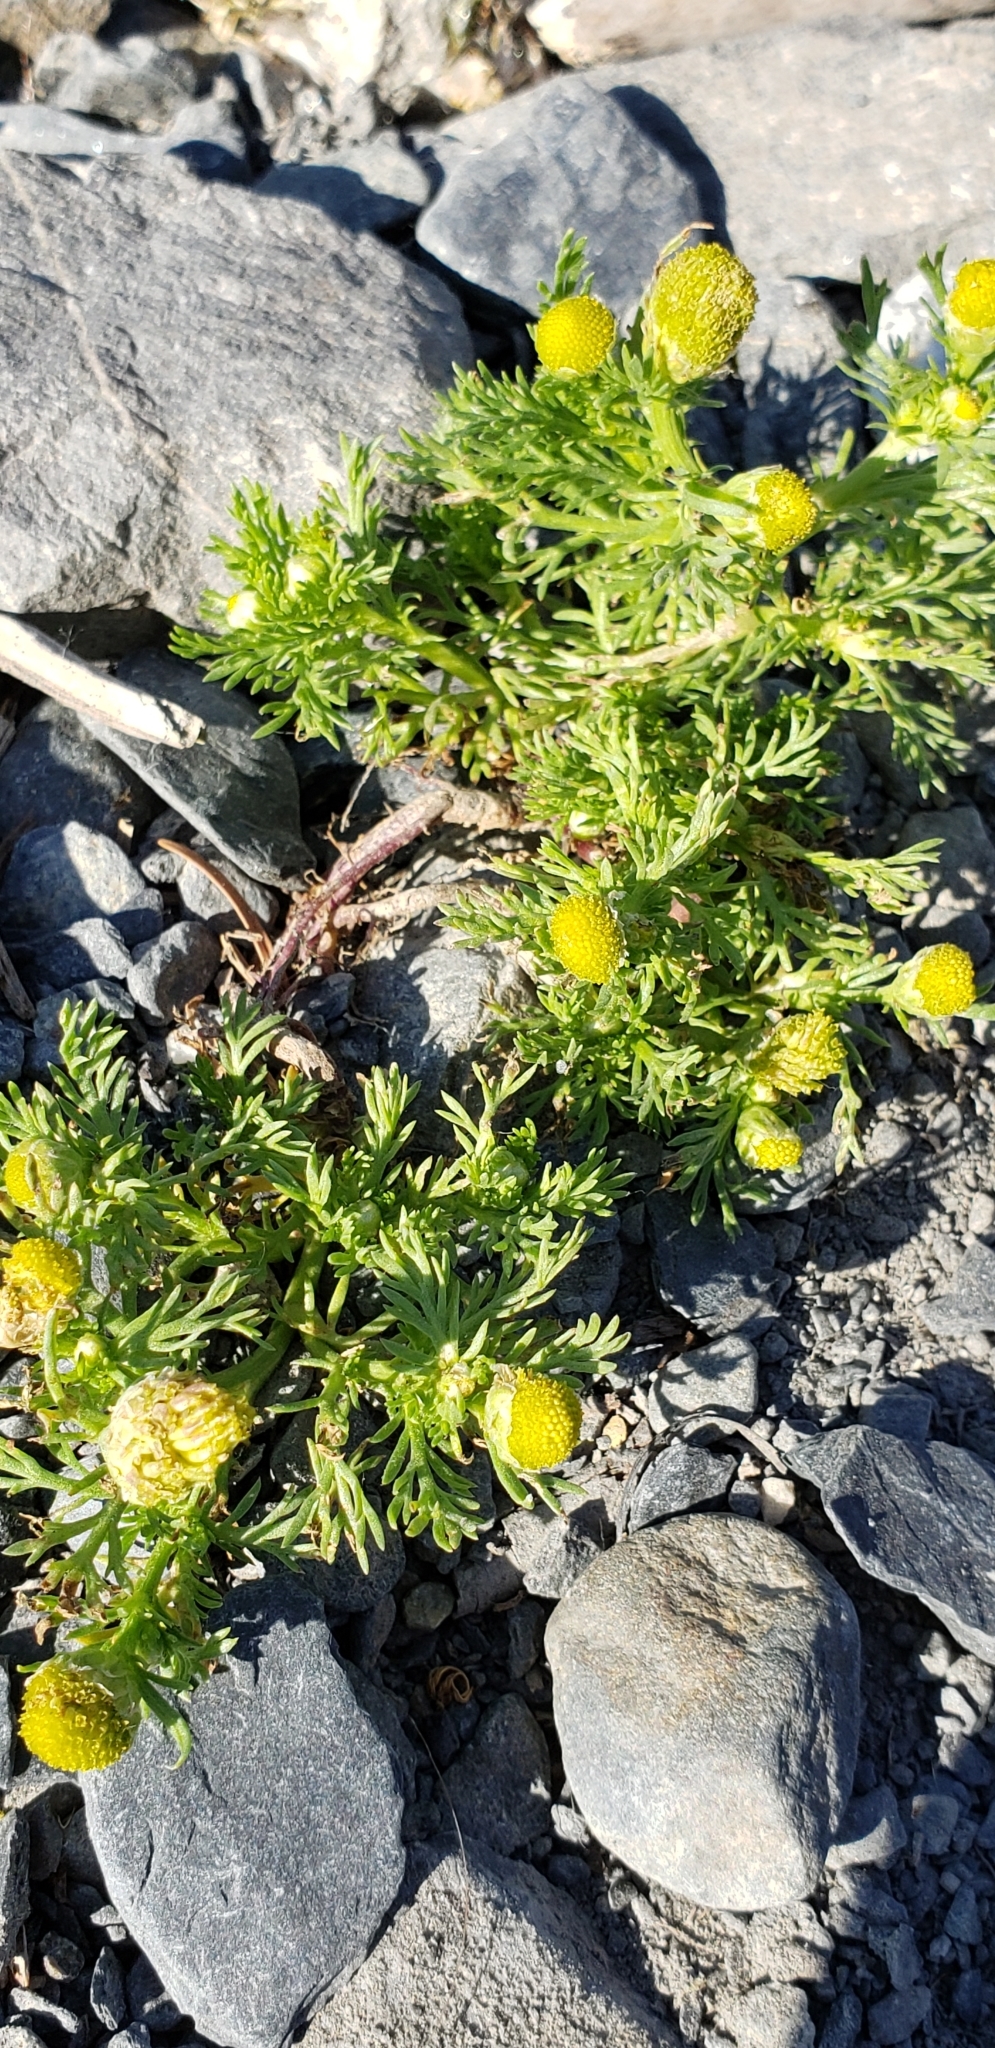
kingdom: Plantae
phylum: Tracheophyta
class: Magnoliopsida
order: Asterales
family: Asteraceae
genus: Matricaria
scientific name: Matricaria discoidea
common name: Disc mayweed
